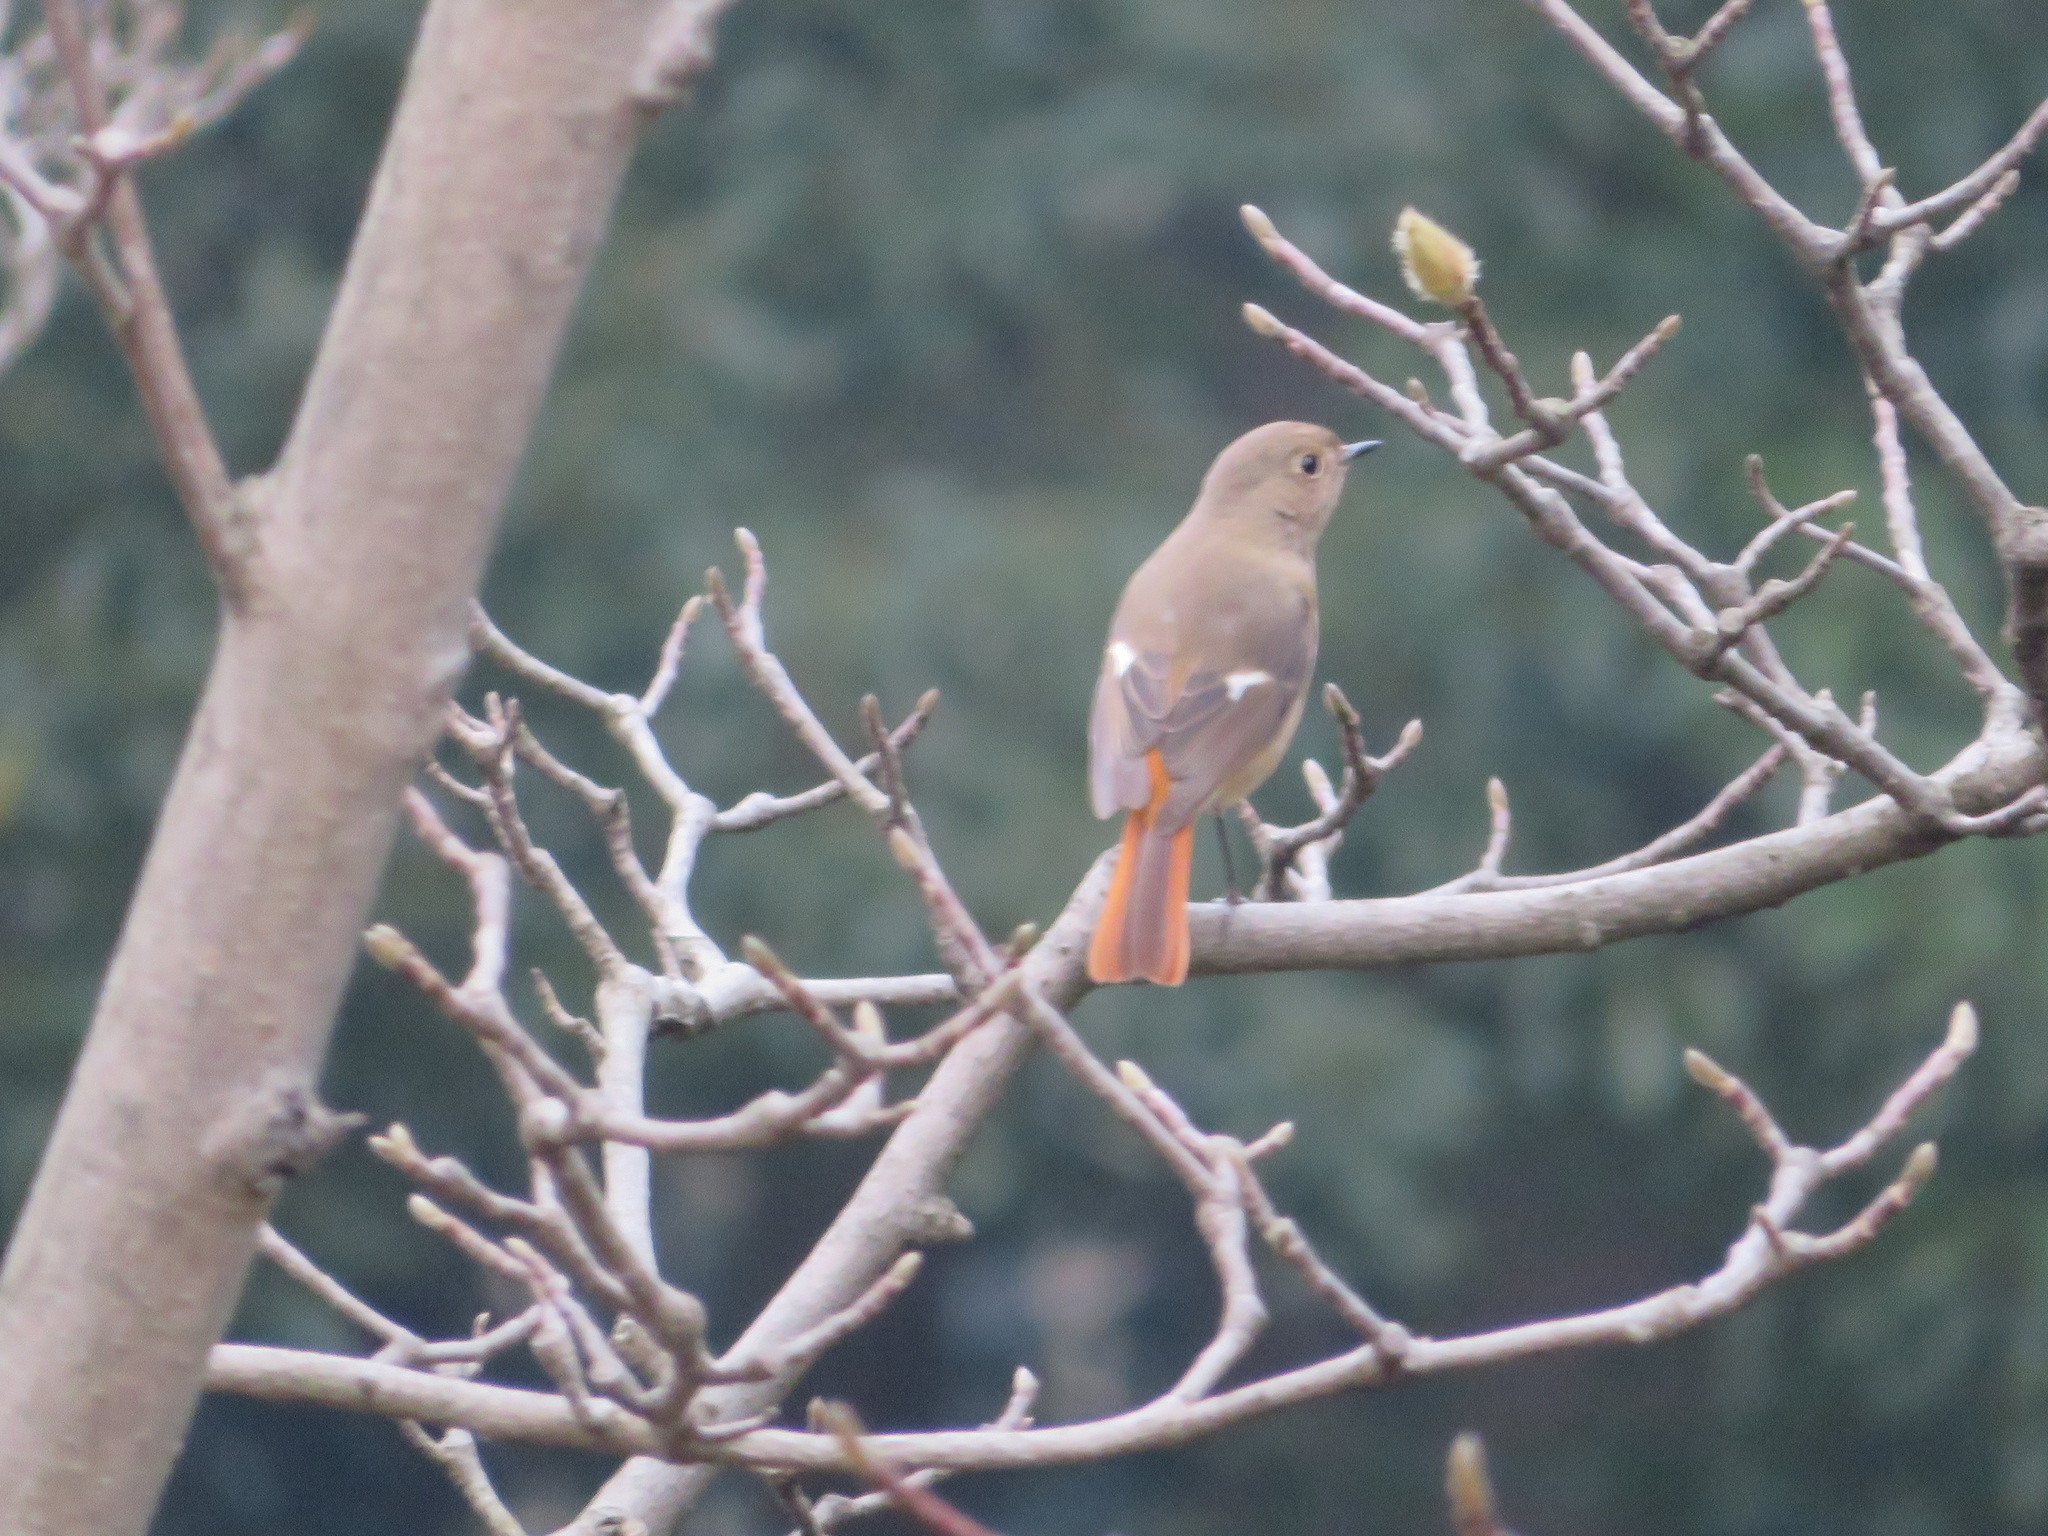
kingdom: Animalia
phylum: Chordata
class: Aves
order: Passeriformes
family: Muscicapidae
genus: Phoenicurus
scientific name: Phoenicurus auroreus
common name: Daurian redstart
